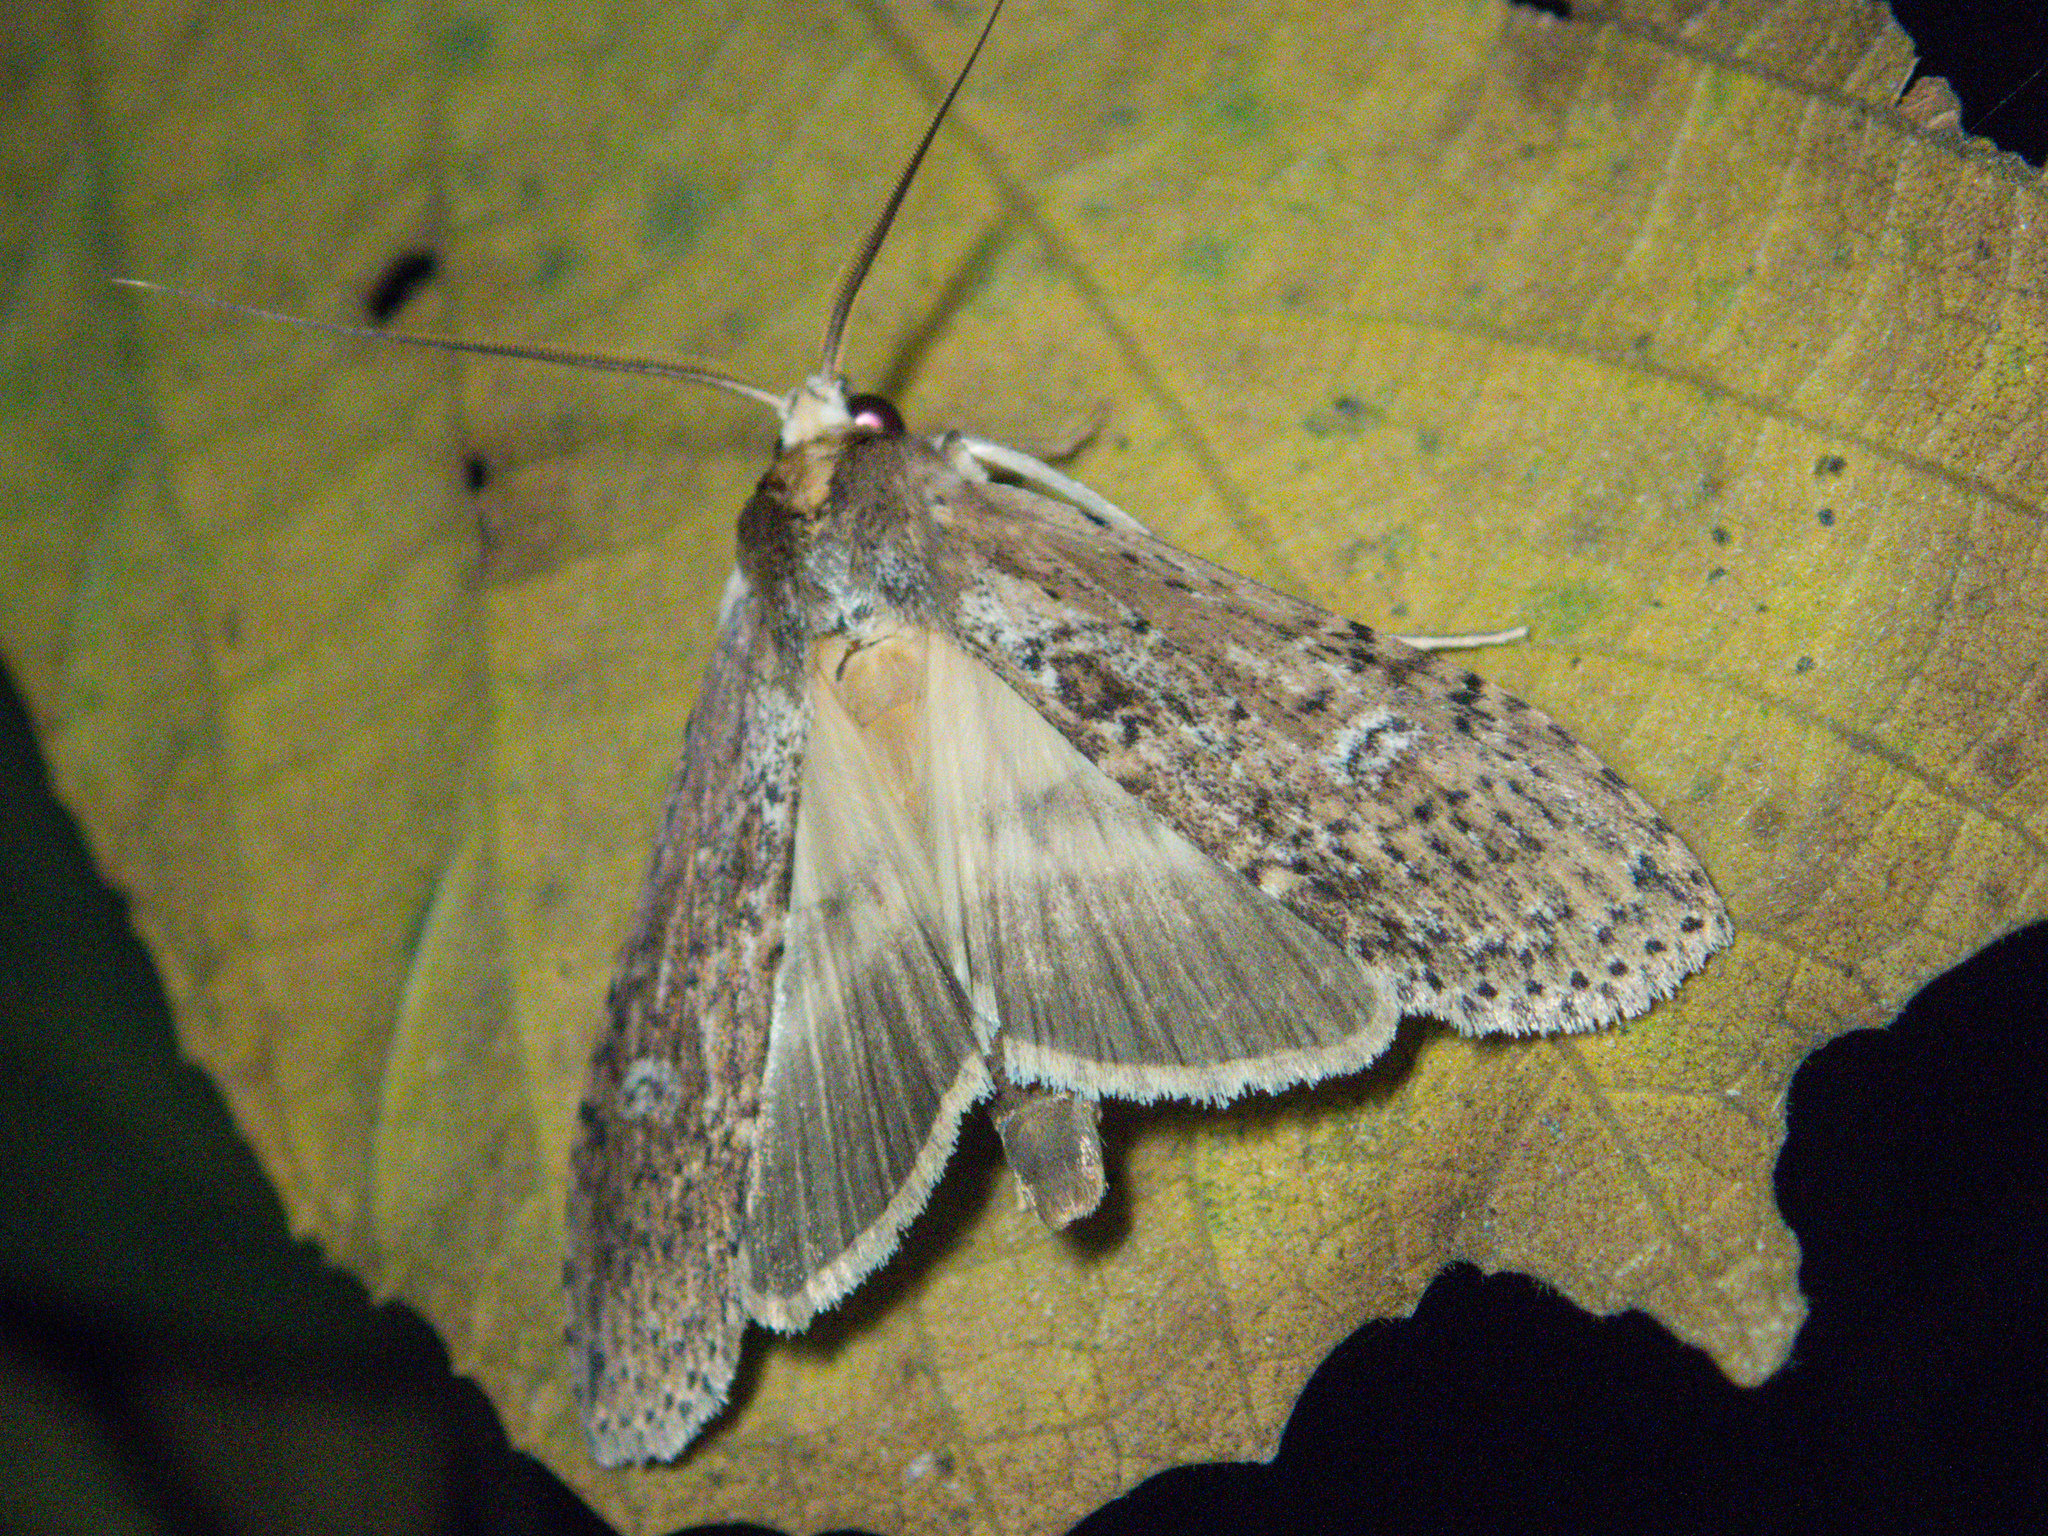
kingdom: Animalia
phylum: Arthropoda
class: Insecta
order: Lepidoptera
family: Notodontidae
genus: Thacona
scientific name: Thacona punctifascia
